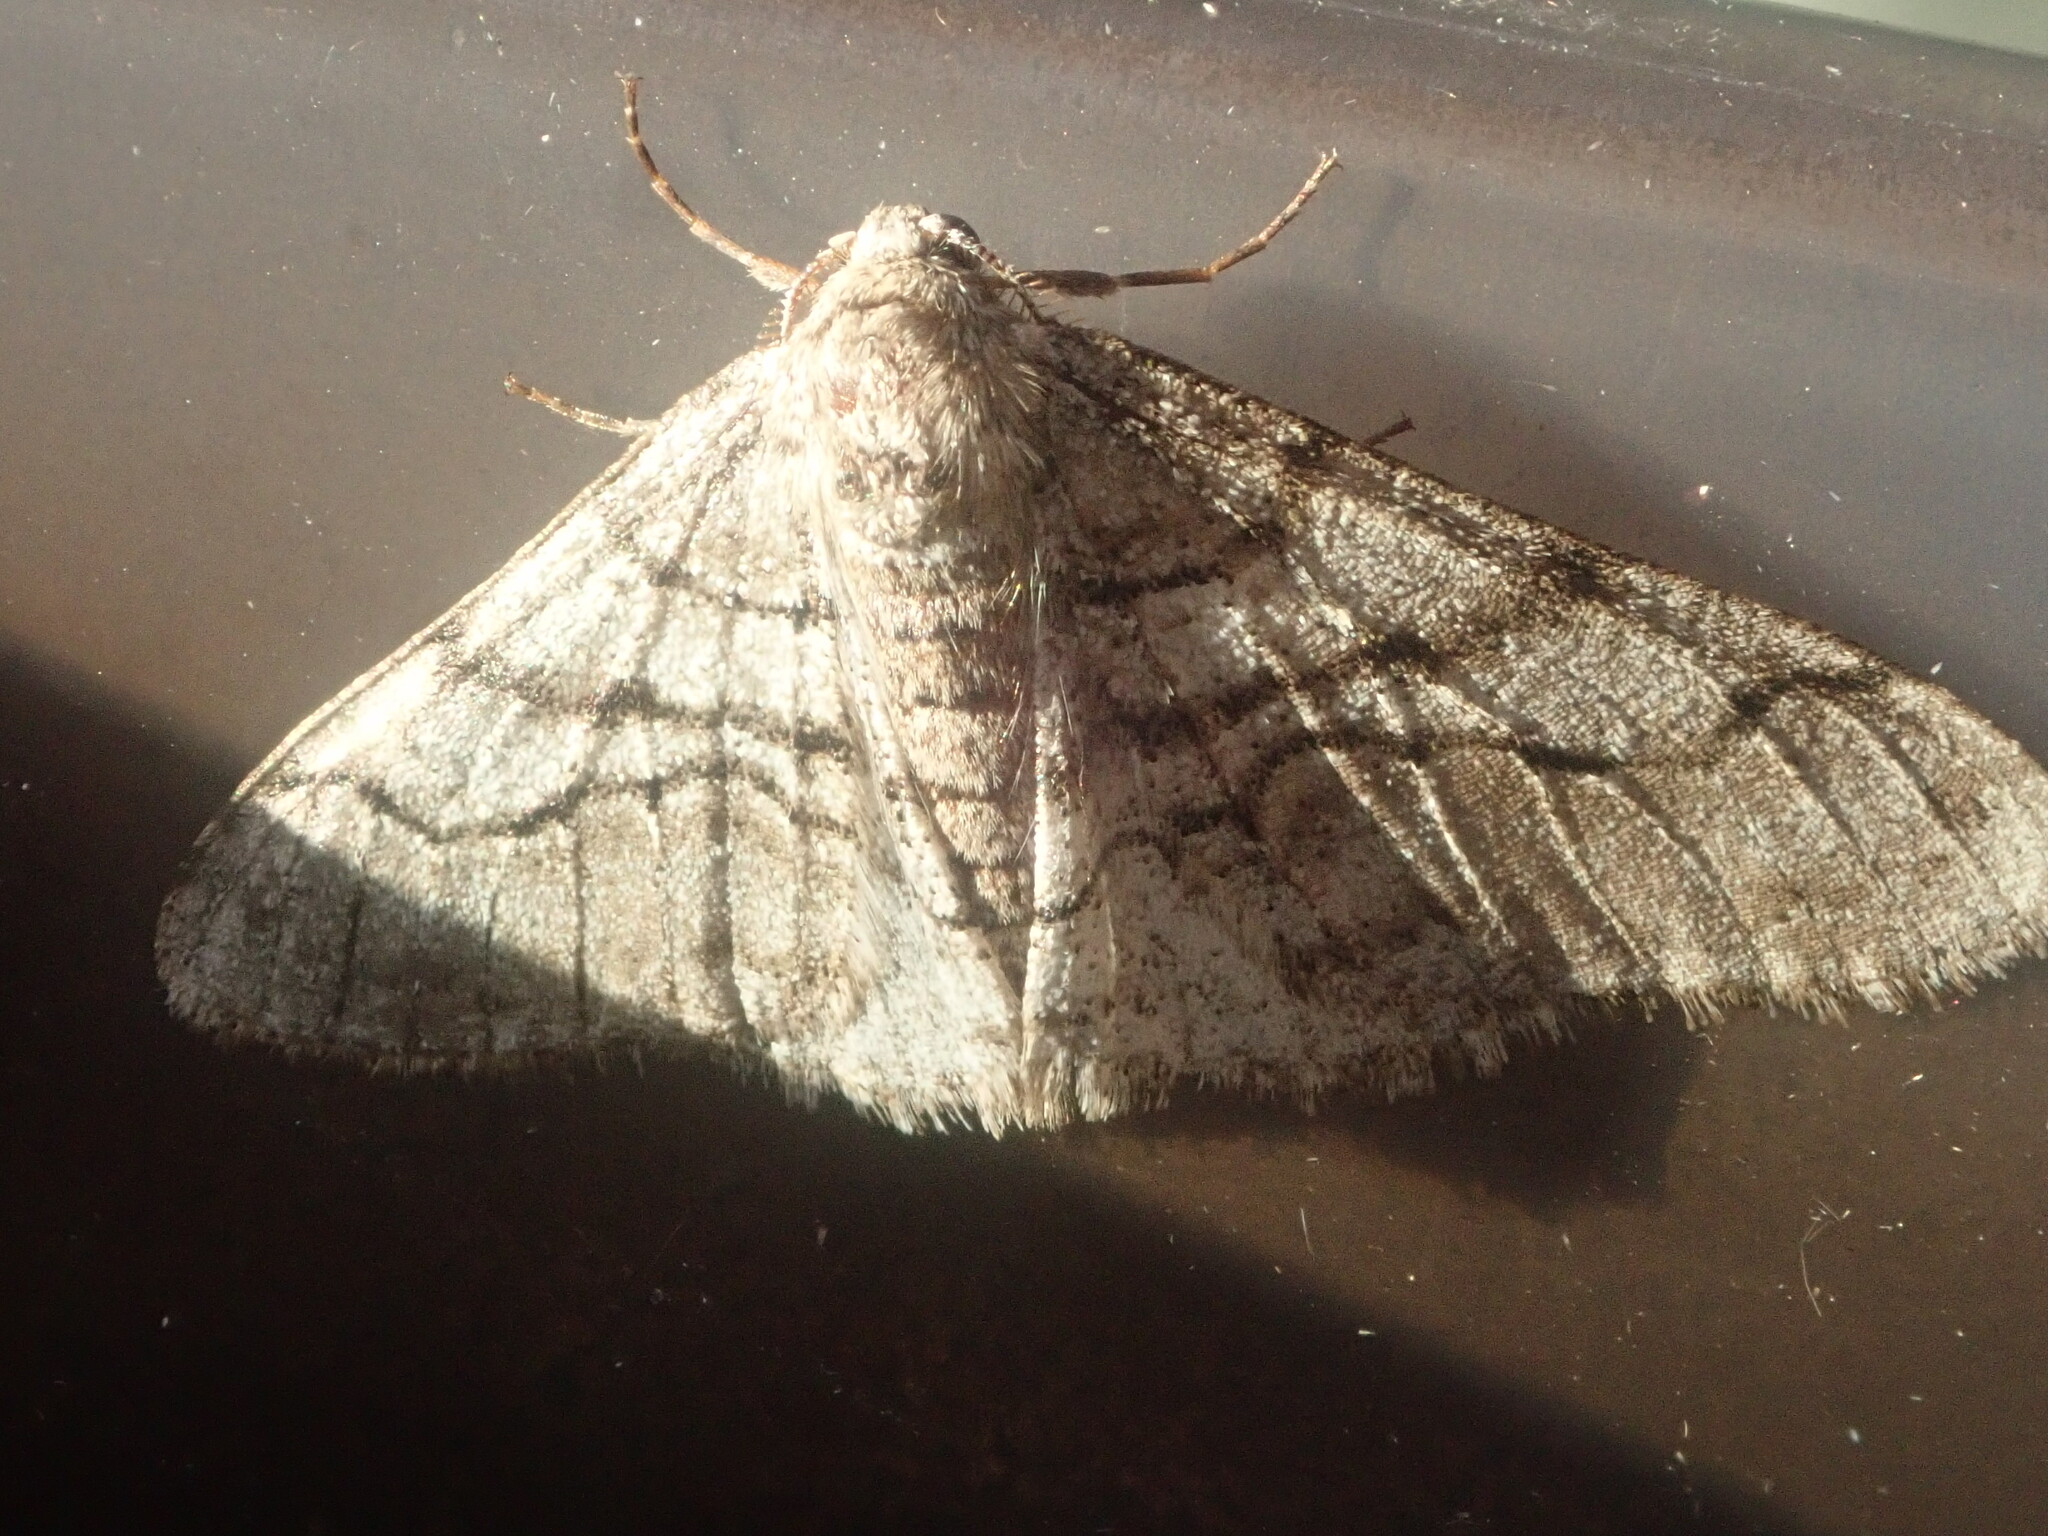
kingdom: Animalia
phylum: Arthropoda
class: Insecta
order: Lepidoptera
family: Geometridae
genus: Phigalia
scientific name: Phigalia titea
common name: Spiny looper
